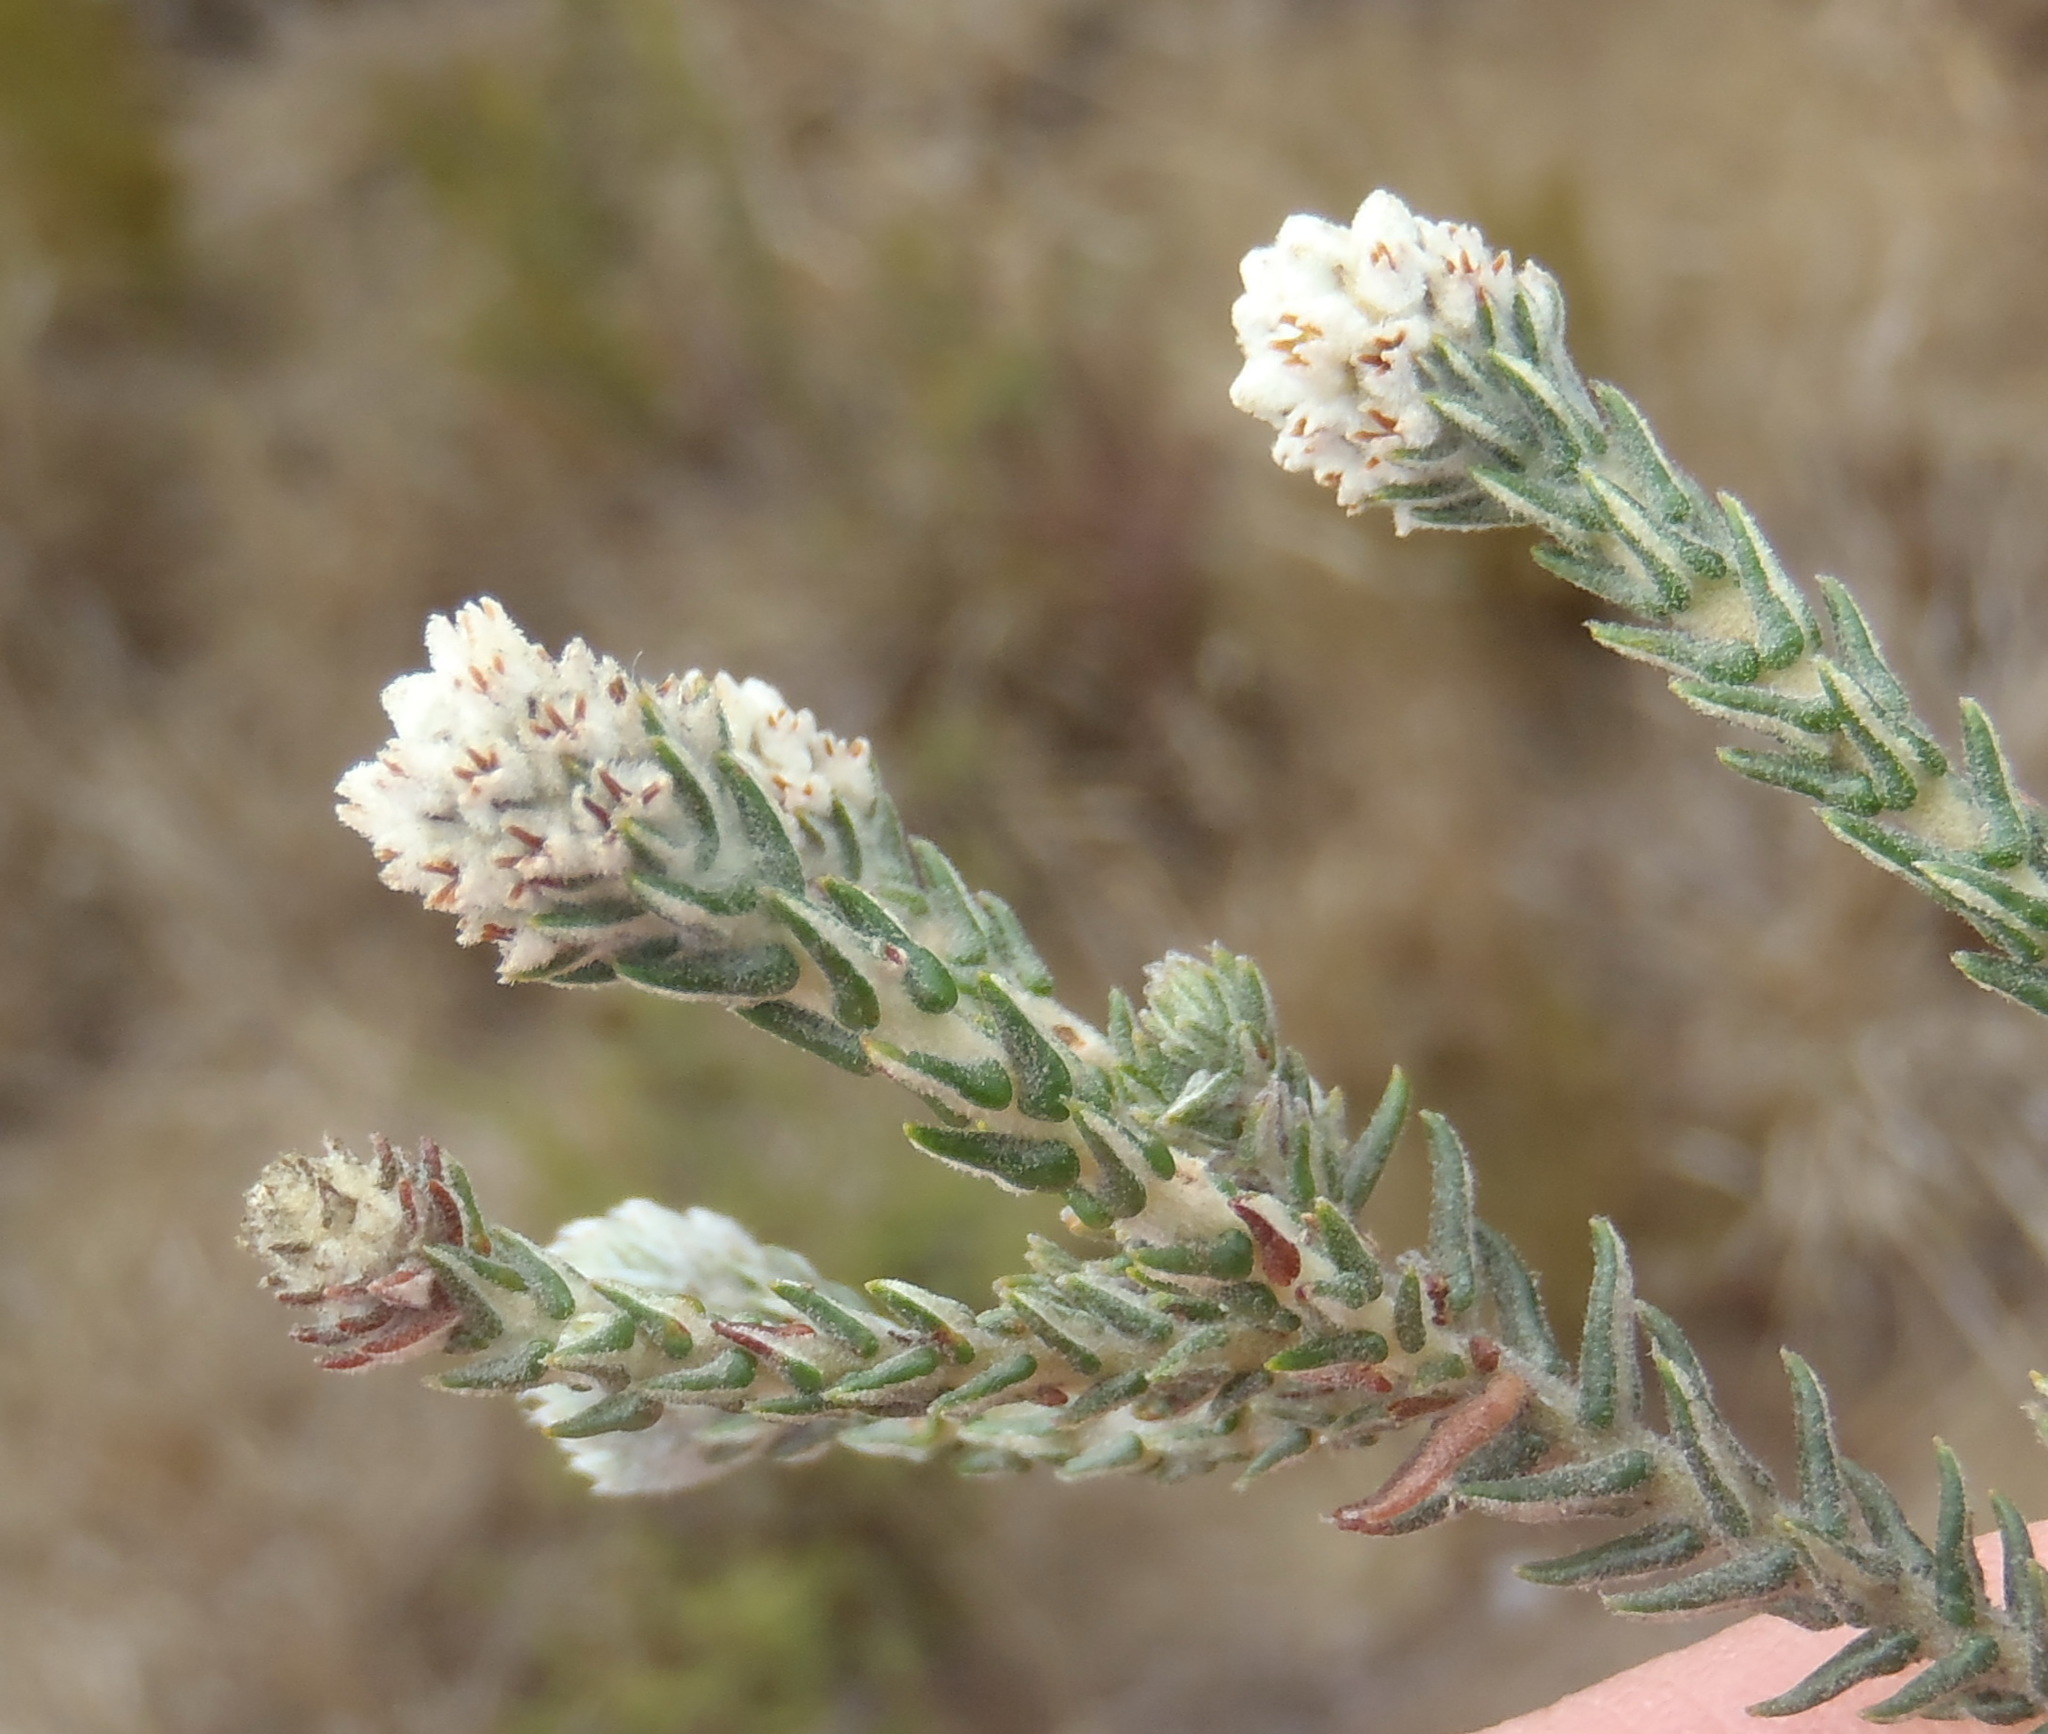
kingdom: Plantae
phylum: Tracheophyta
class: Magnoliopsida
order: Rosales
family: Rhamnaceae
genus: Phylica
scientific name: Phylica thunbergiana
